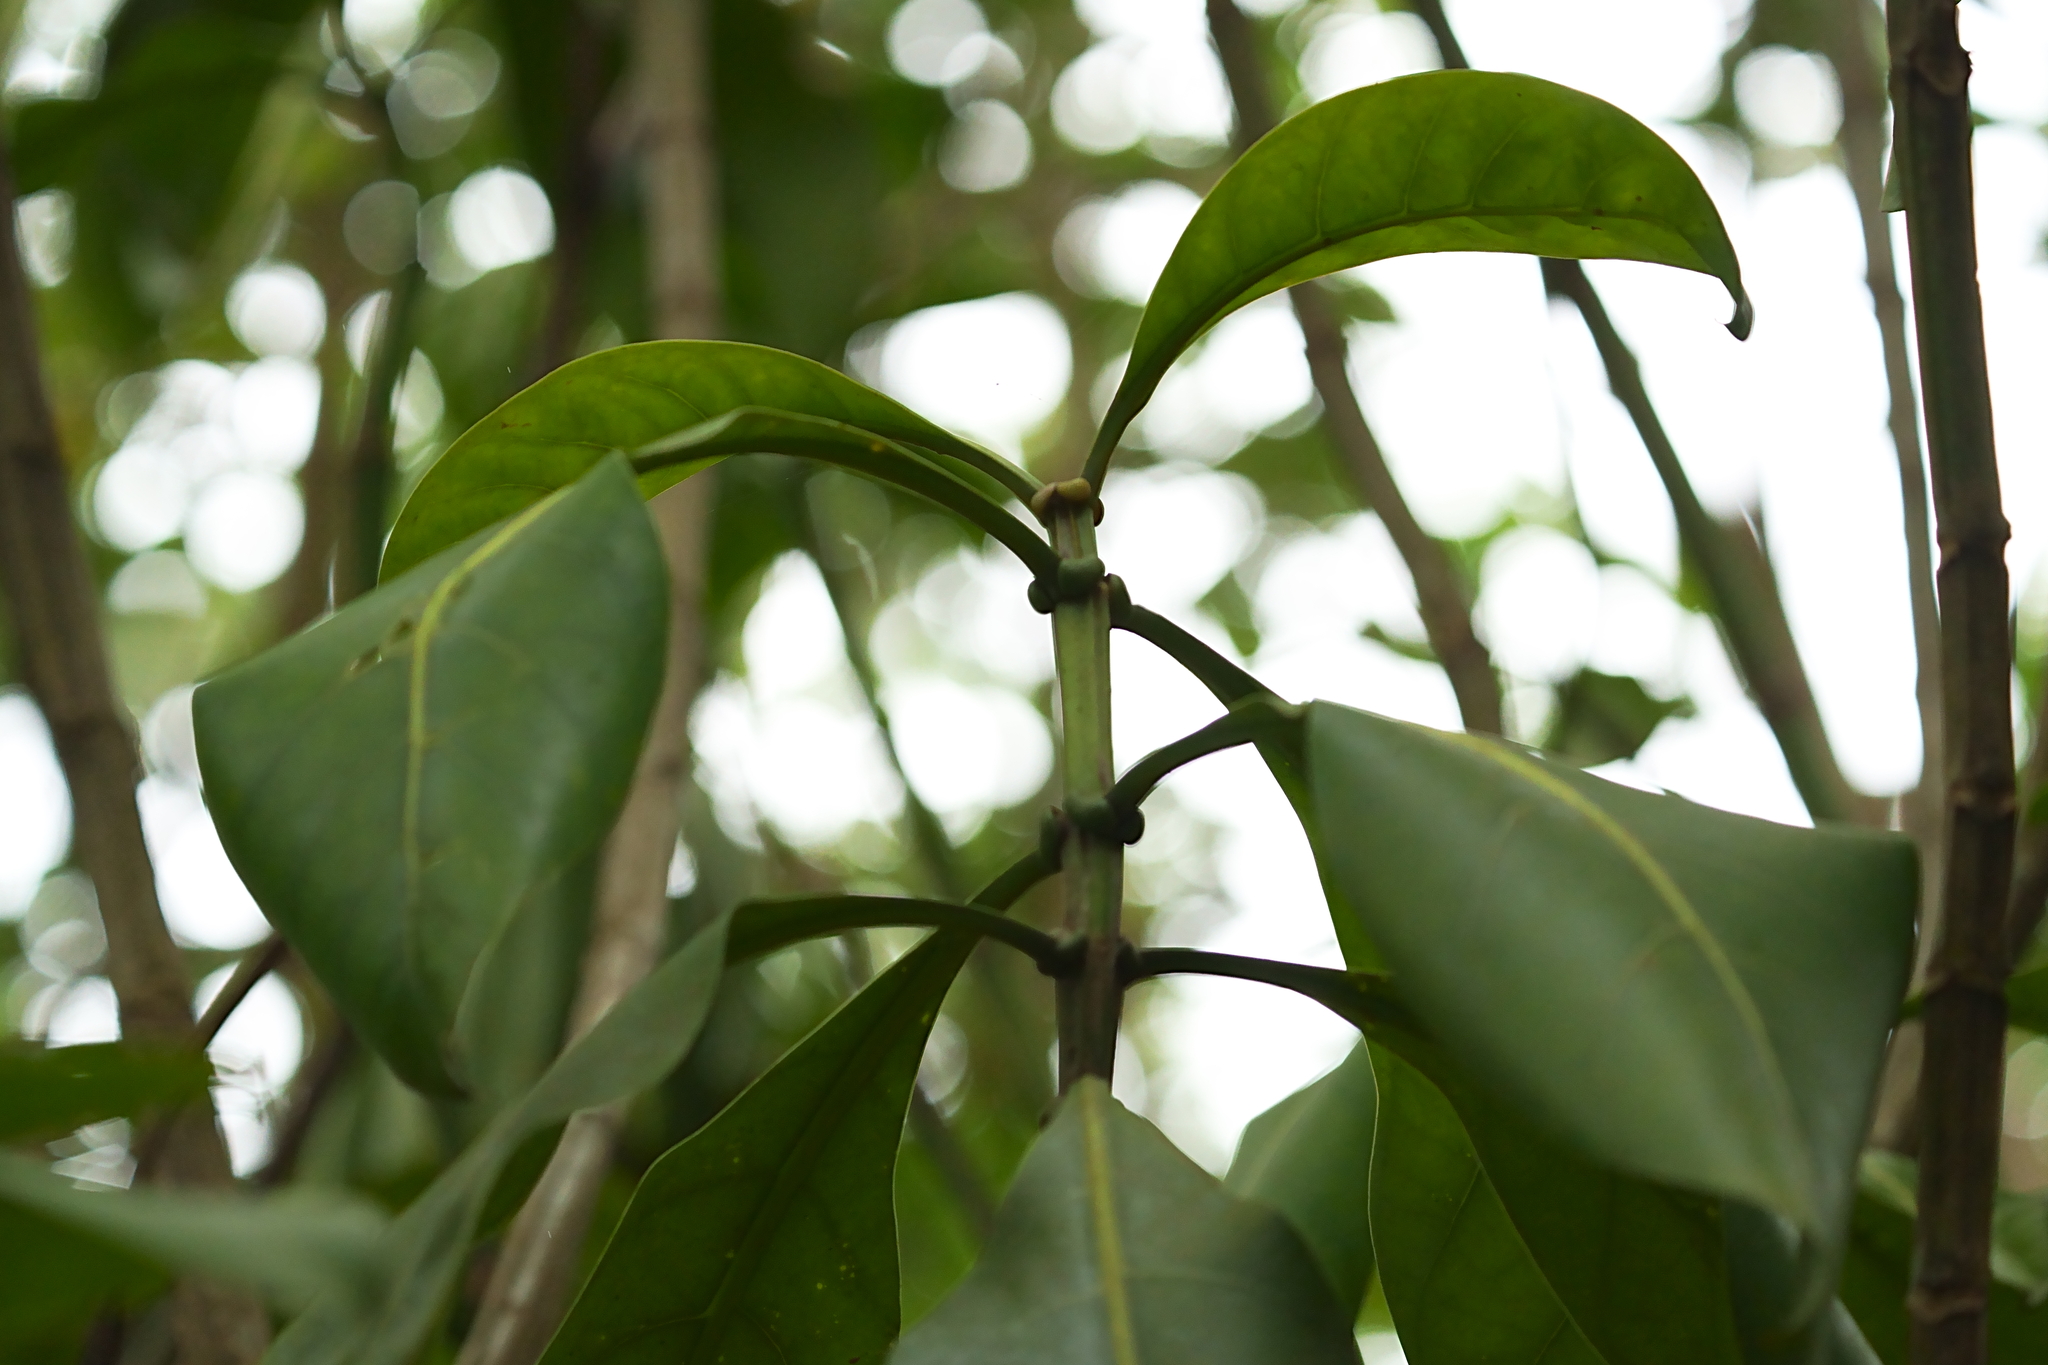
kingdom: Plantae
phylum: Tracheophyta
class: Magnoliopsida
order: Gentianales
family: Gentianaceae
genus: Fagraea
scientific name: Fagraea auriculata
